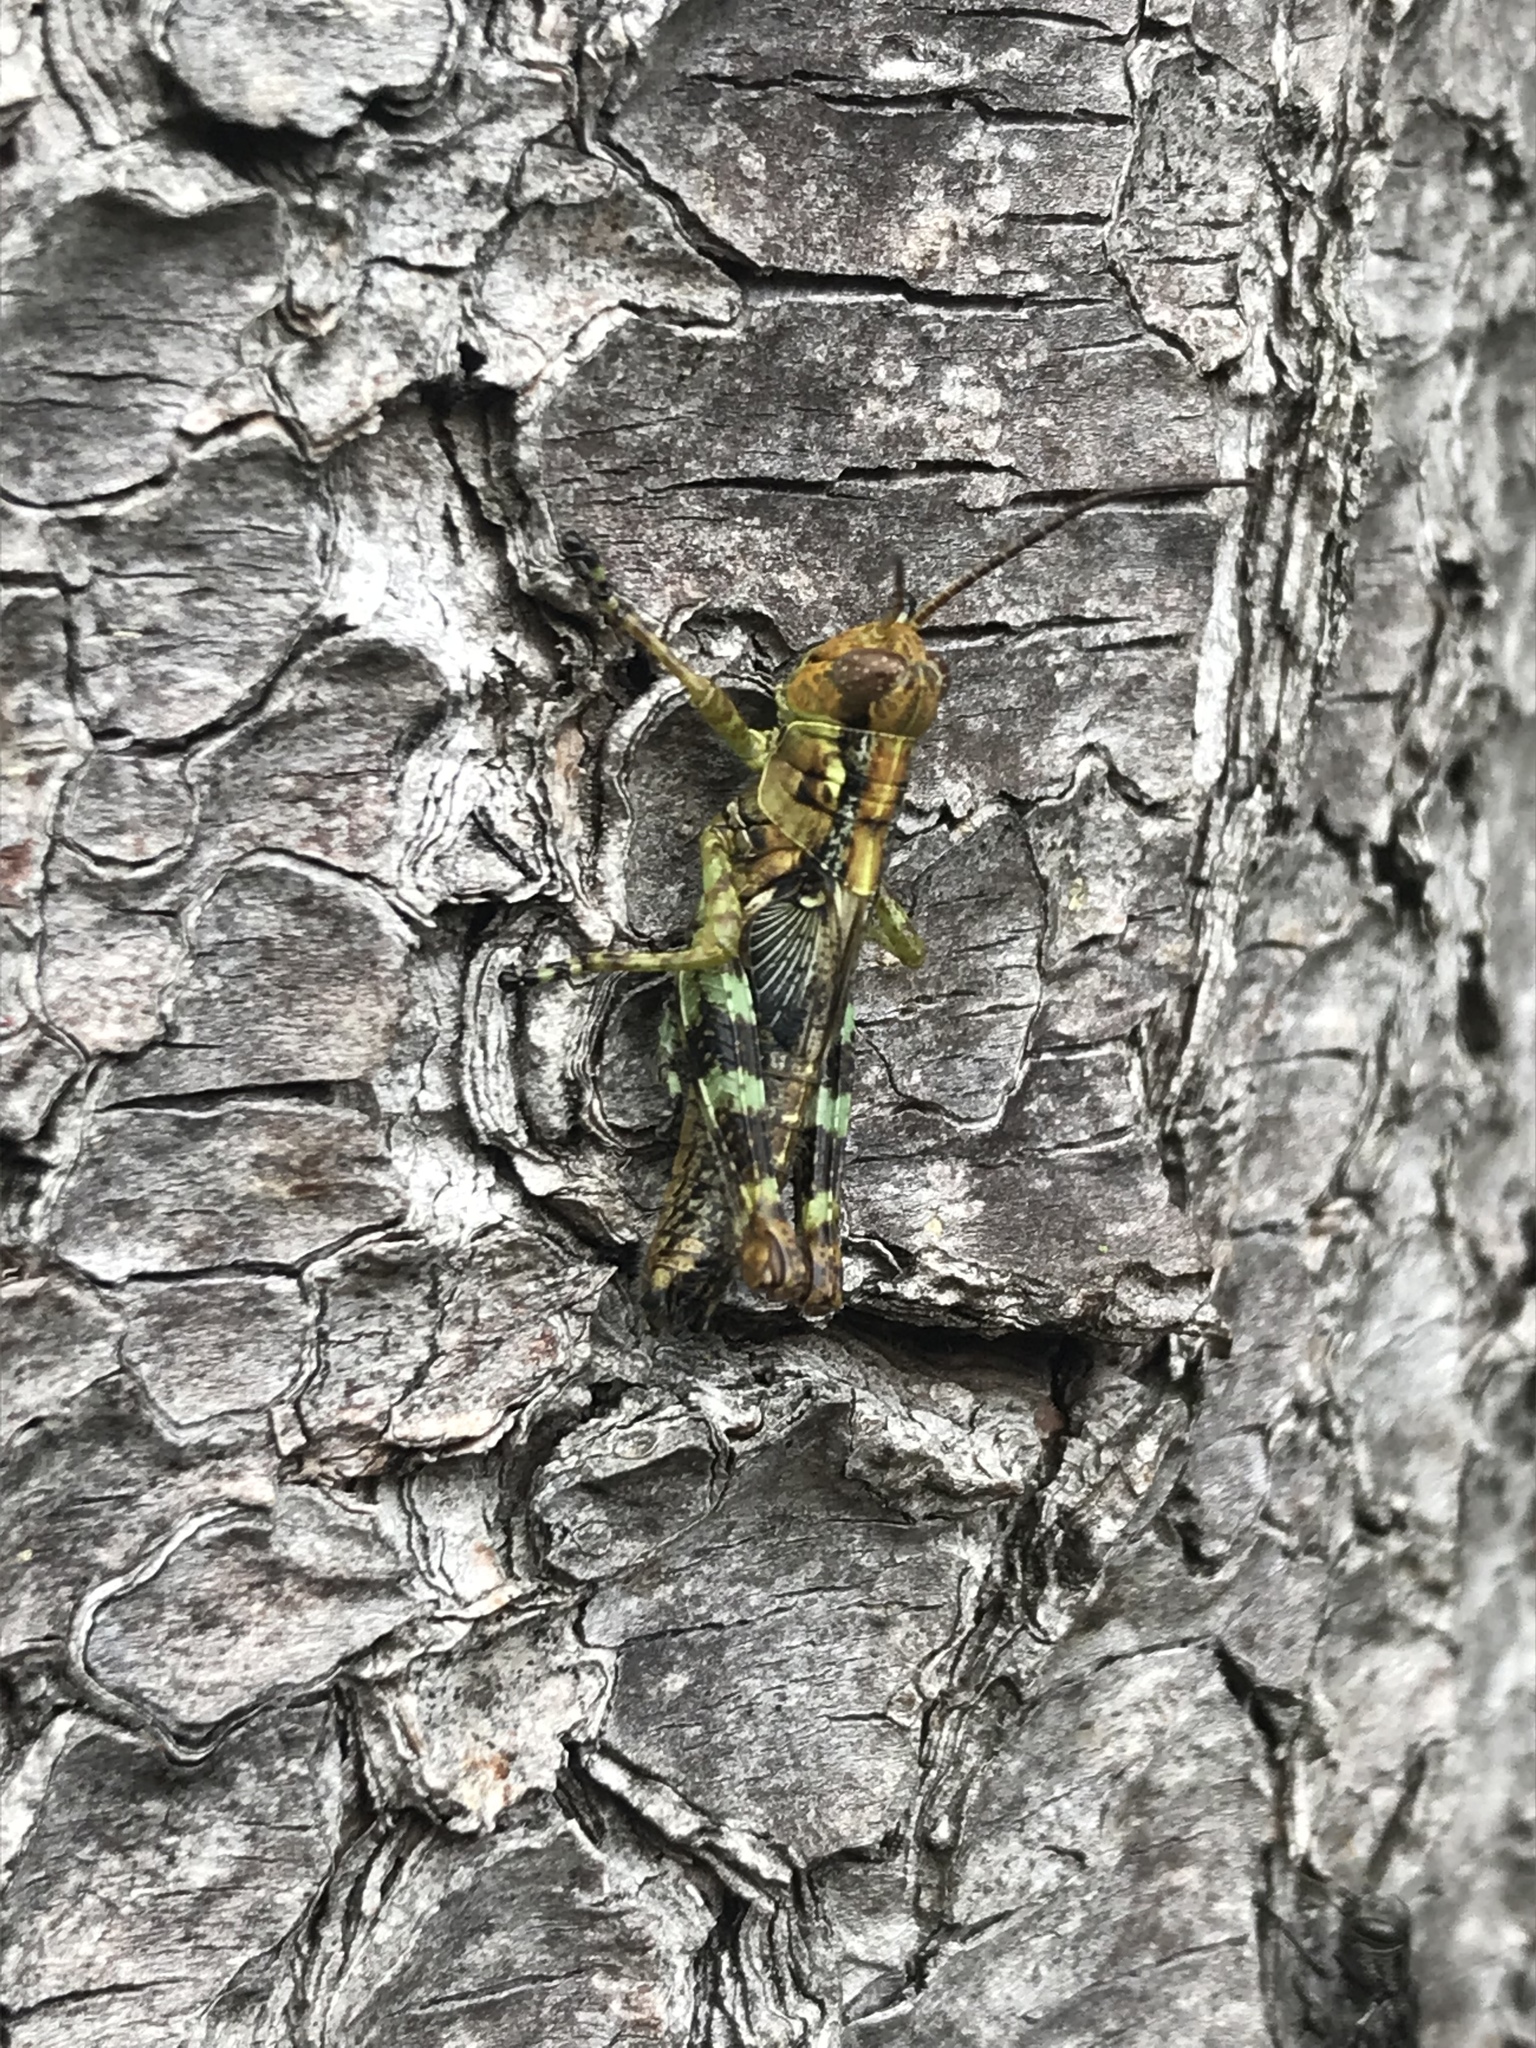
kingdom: Animalia
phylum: Arthropoda
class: Insecta
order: Orthoptera
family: Acrididae
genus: Melanoplus
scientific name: Melanoplus punctulatus
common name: Pine-tree spur-throat grasshopper
